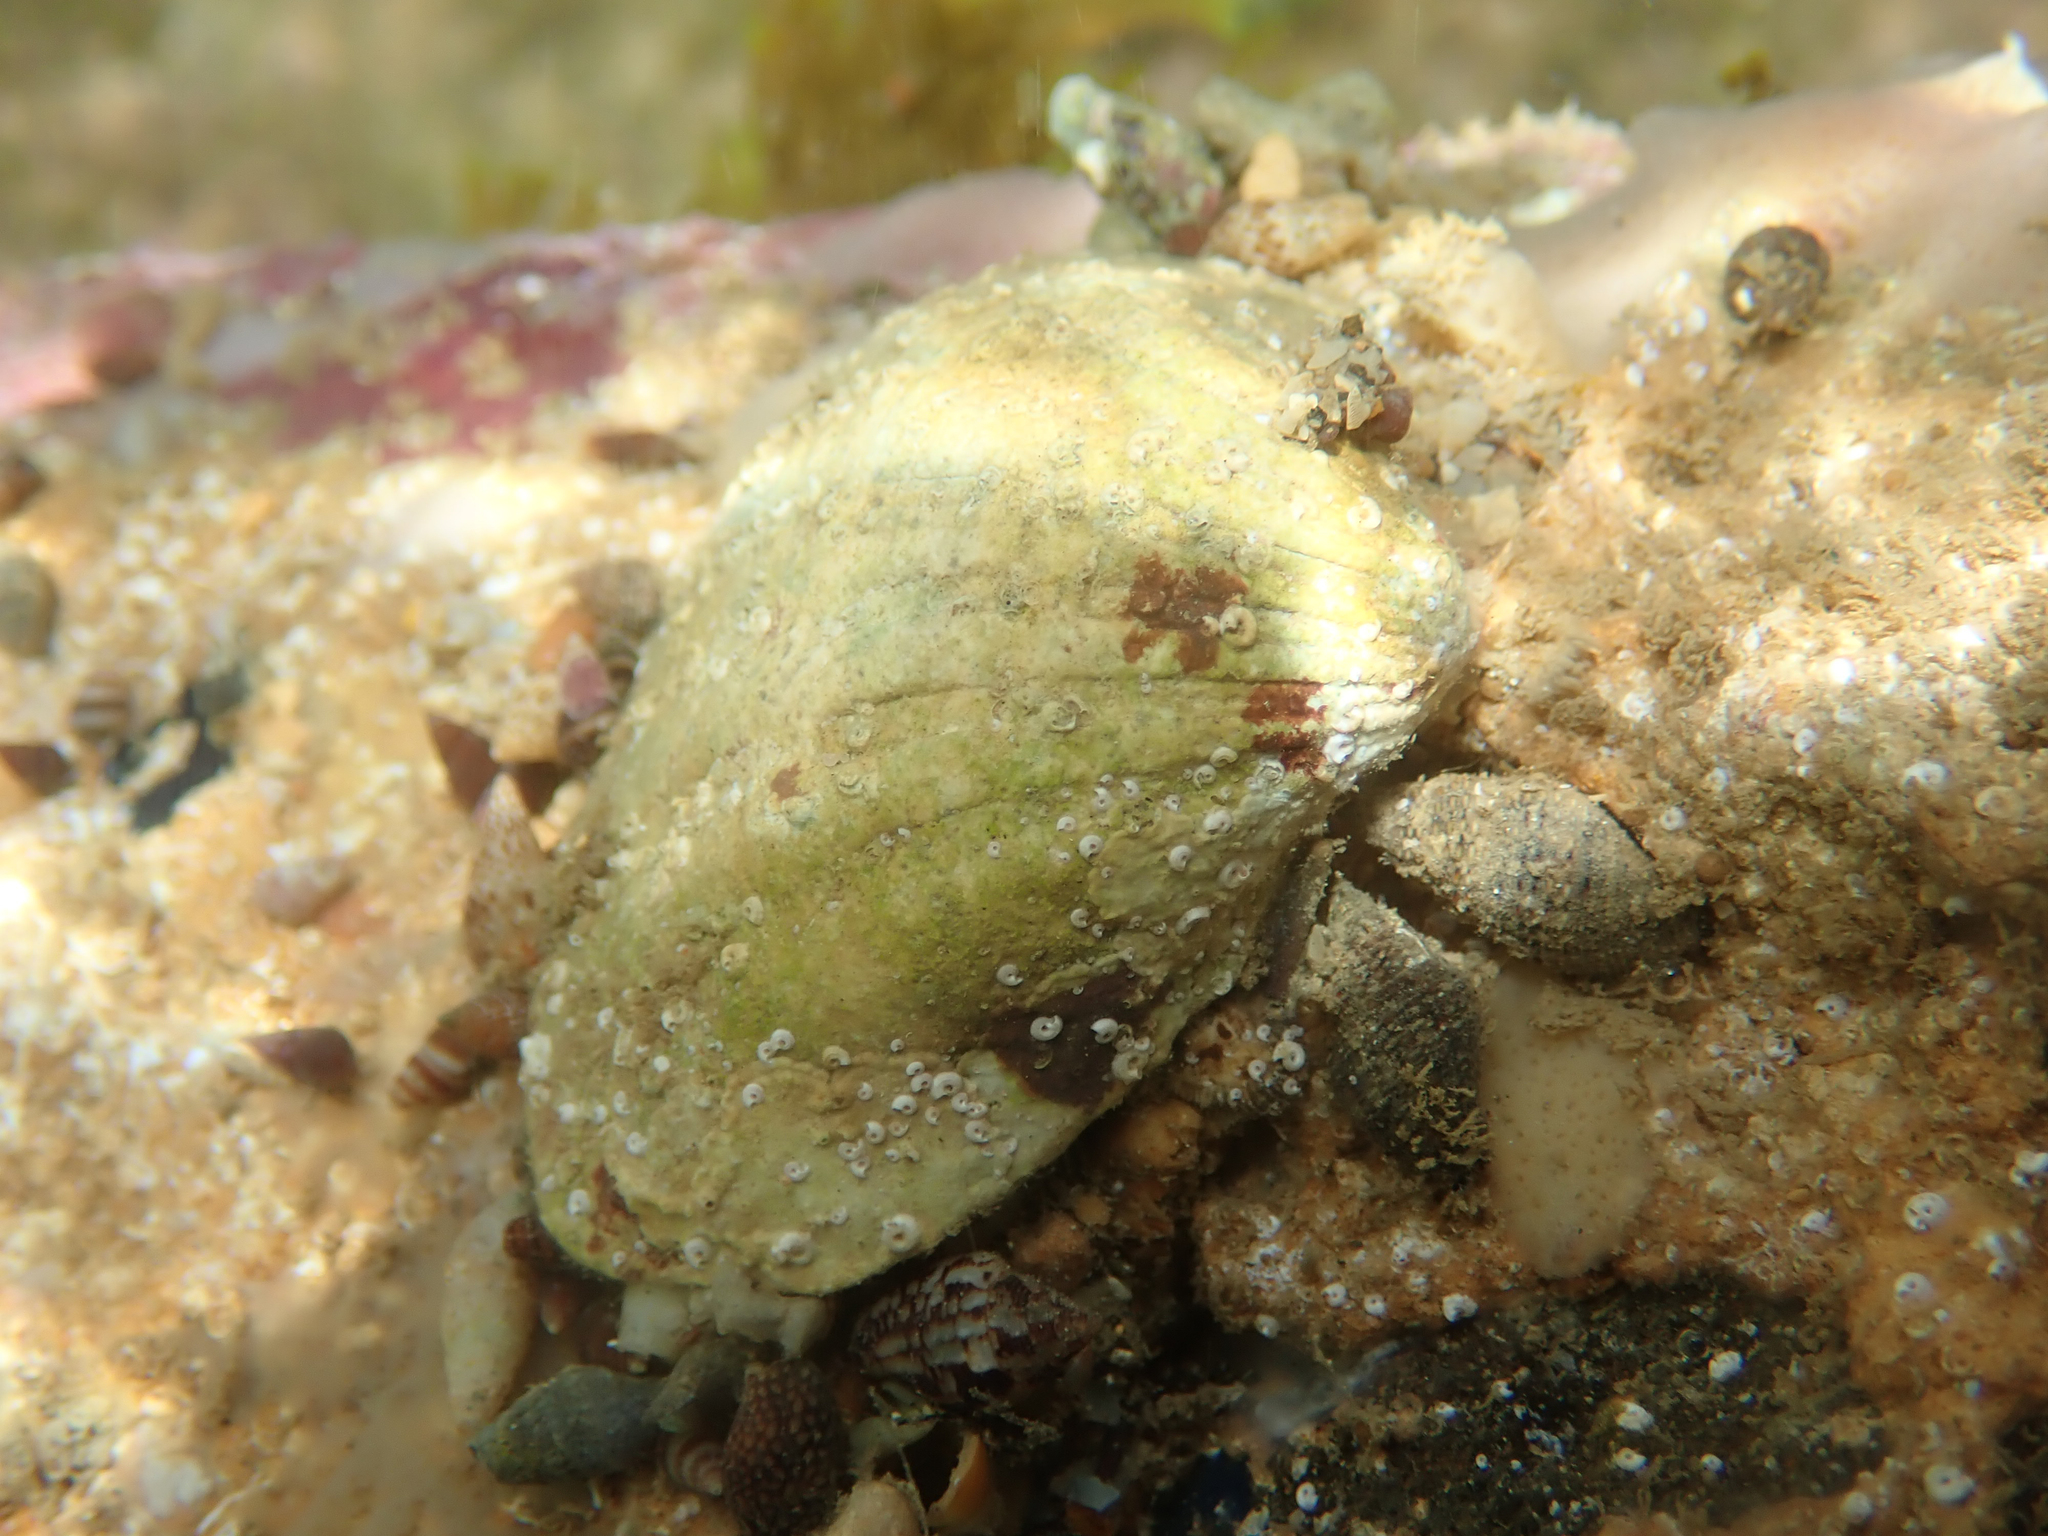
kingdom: Animalia
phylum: Mollusca
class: Bivalvia
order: Arcida
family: Arcidae
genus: Senilia
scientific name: Senilia senilis
